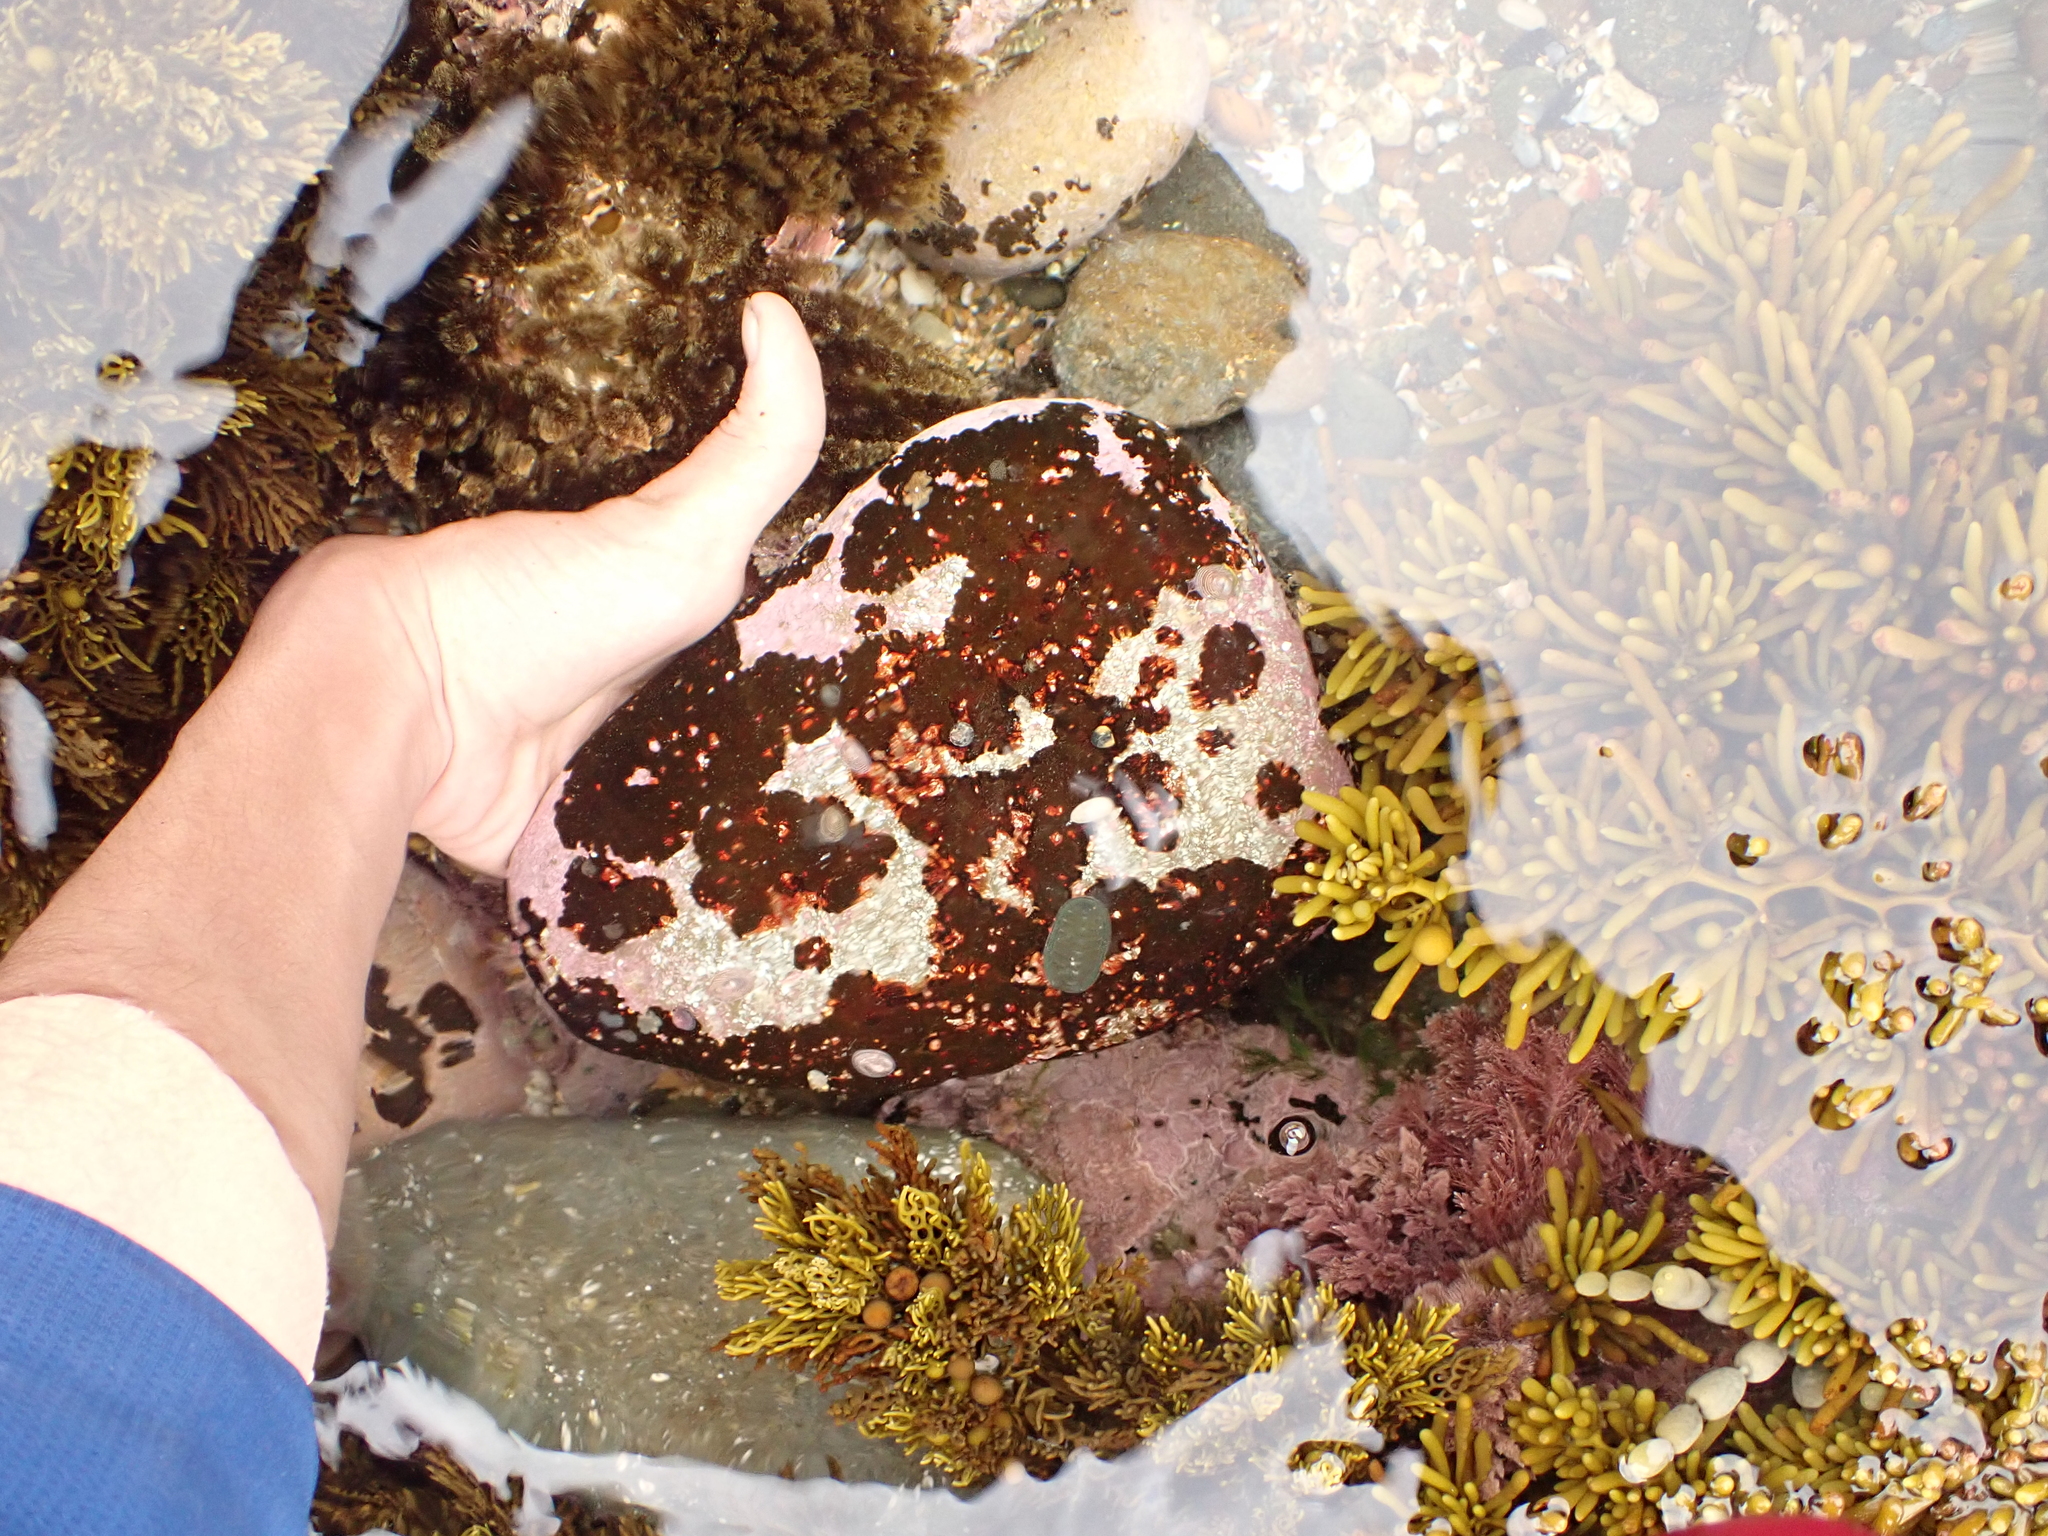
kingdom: Animalia
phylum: Mollusca
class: Gastropoda
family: Lottiidae
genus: Atalacmea
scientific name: Atalacmea multilinea
